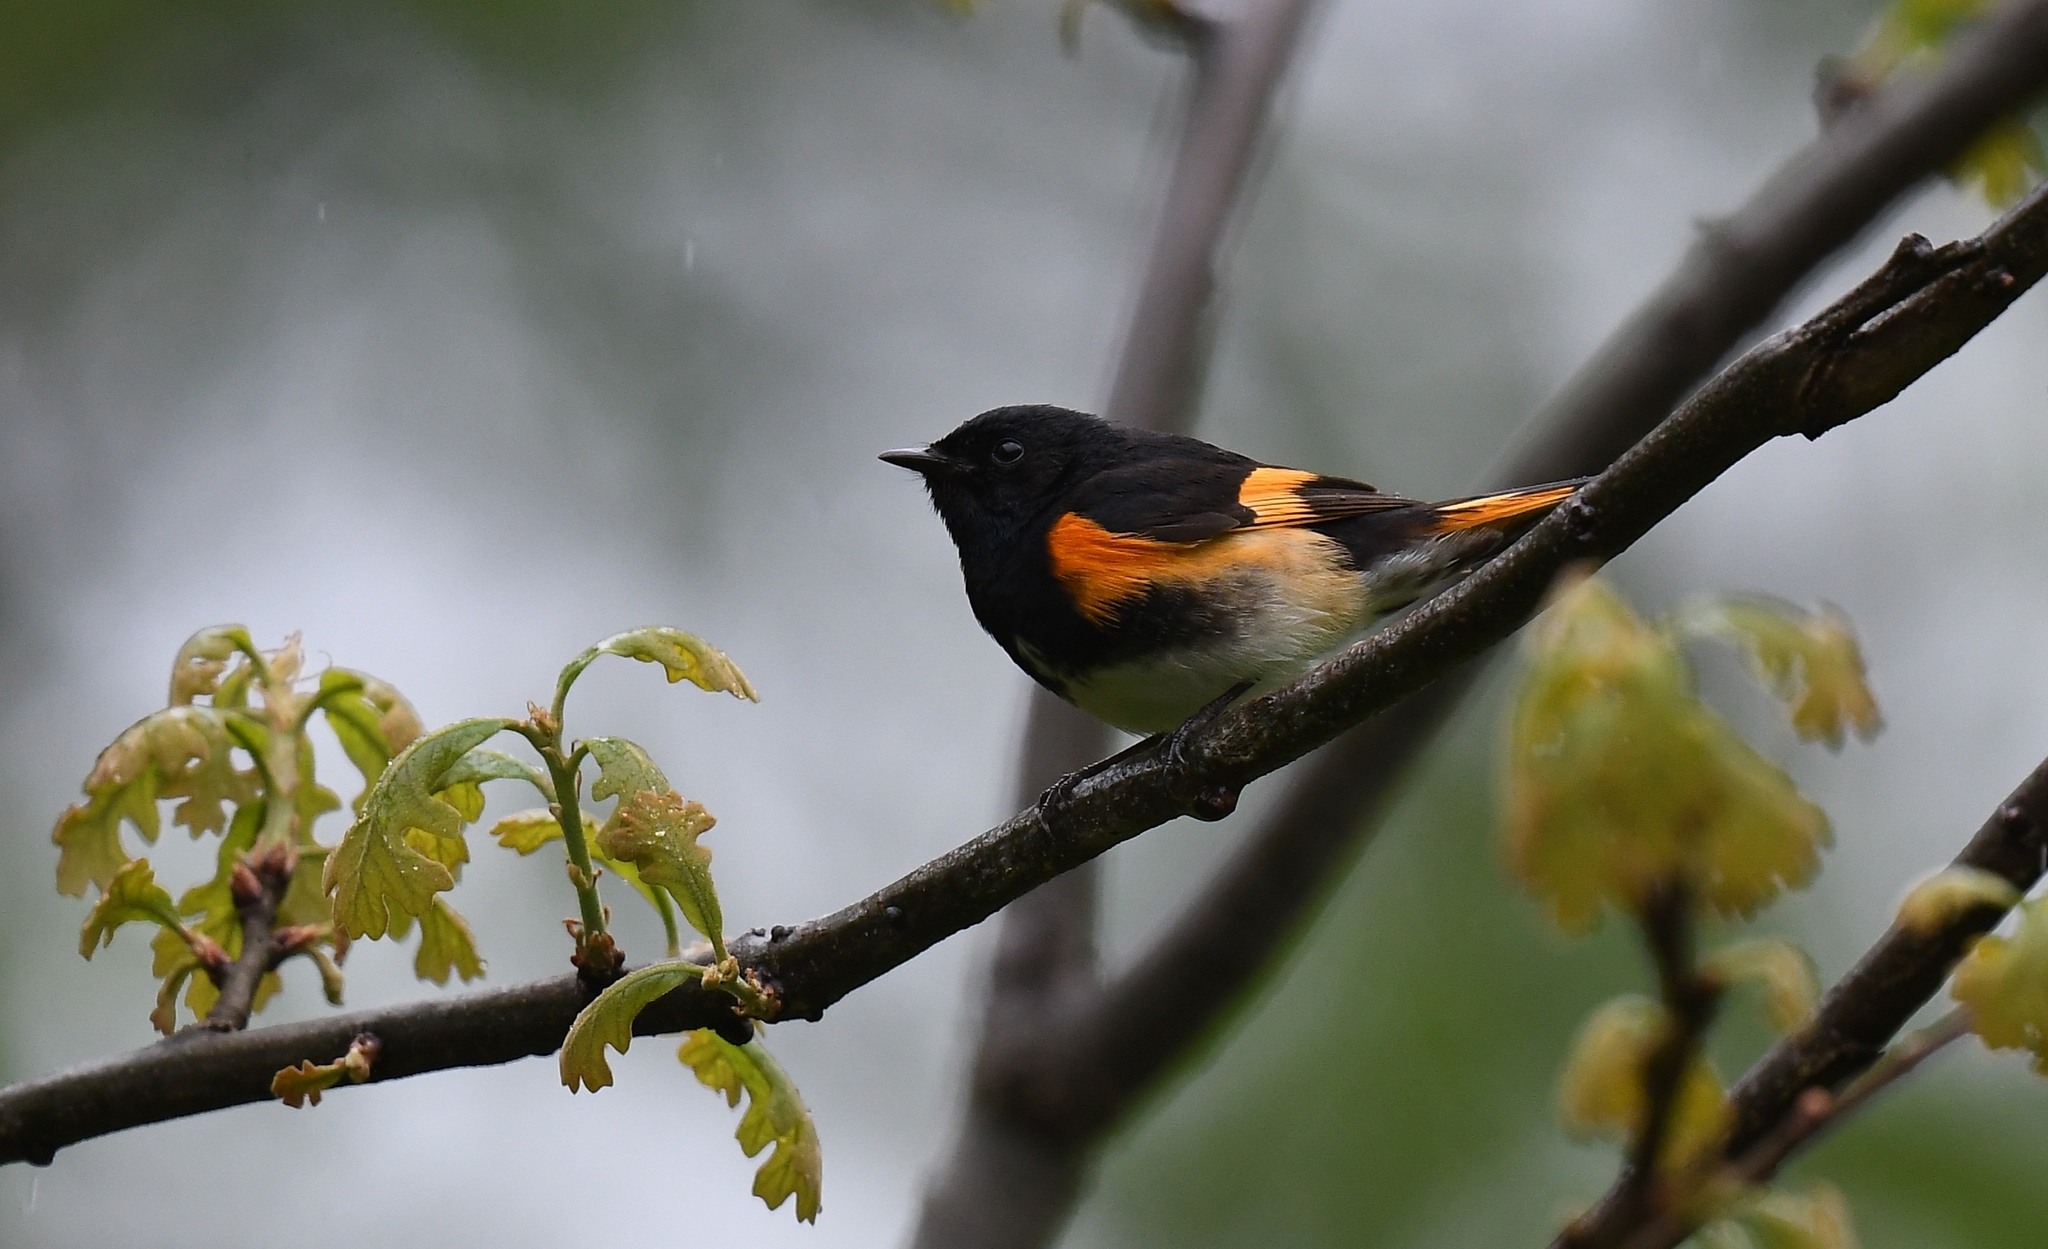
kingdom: Animalia
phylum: Chordata
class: Aves
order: Passeriformes
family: Parulidae
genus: Setophaga
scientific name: Setophaga ruticilla
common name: American redstart
